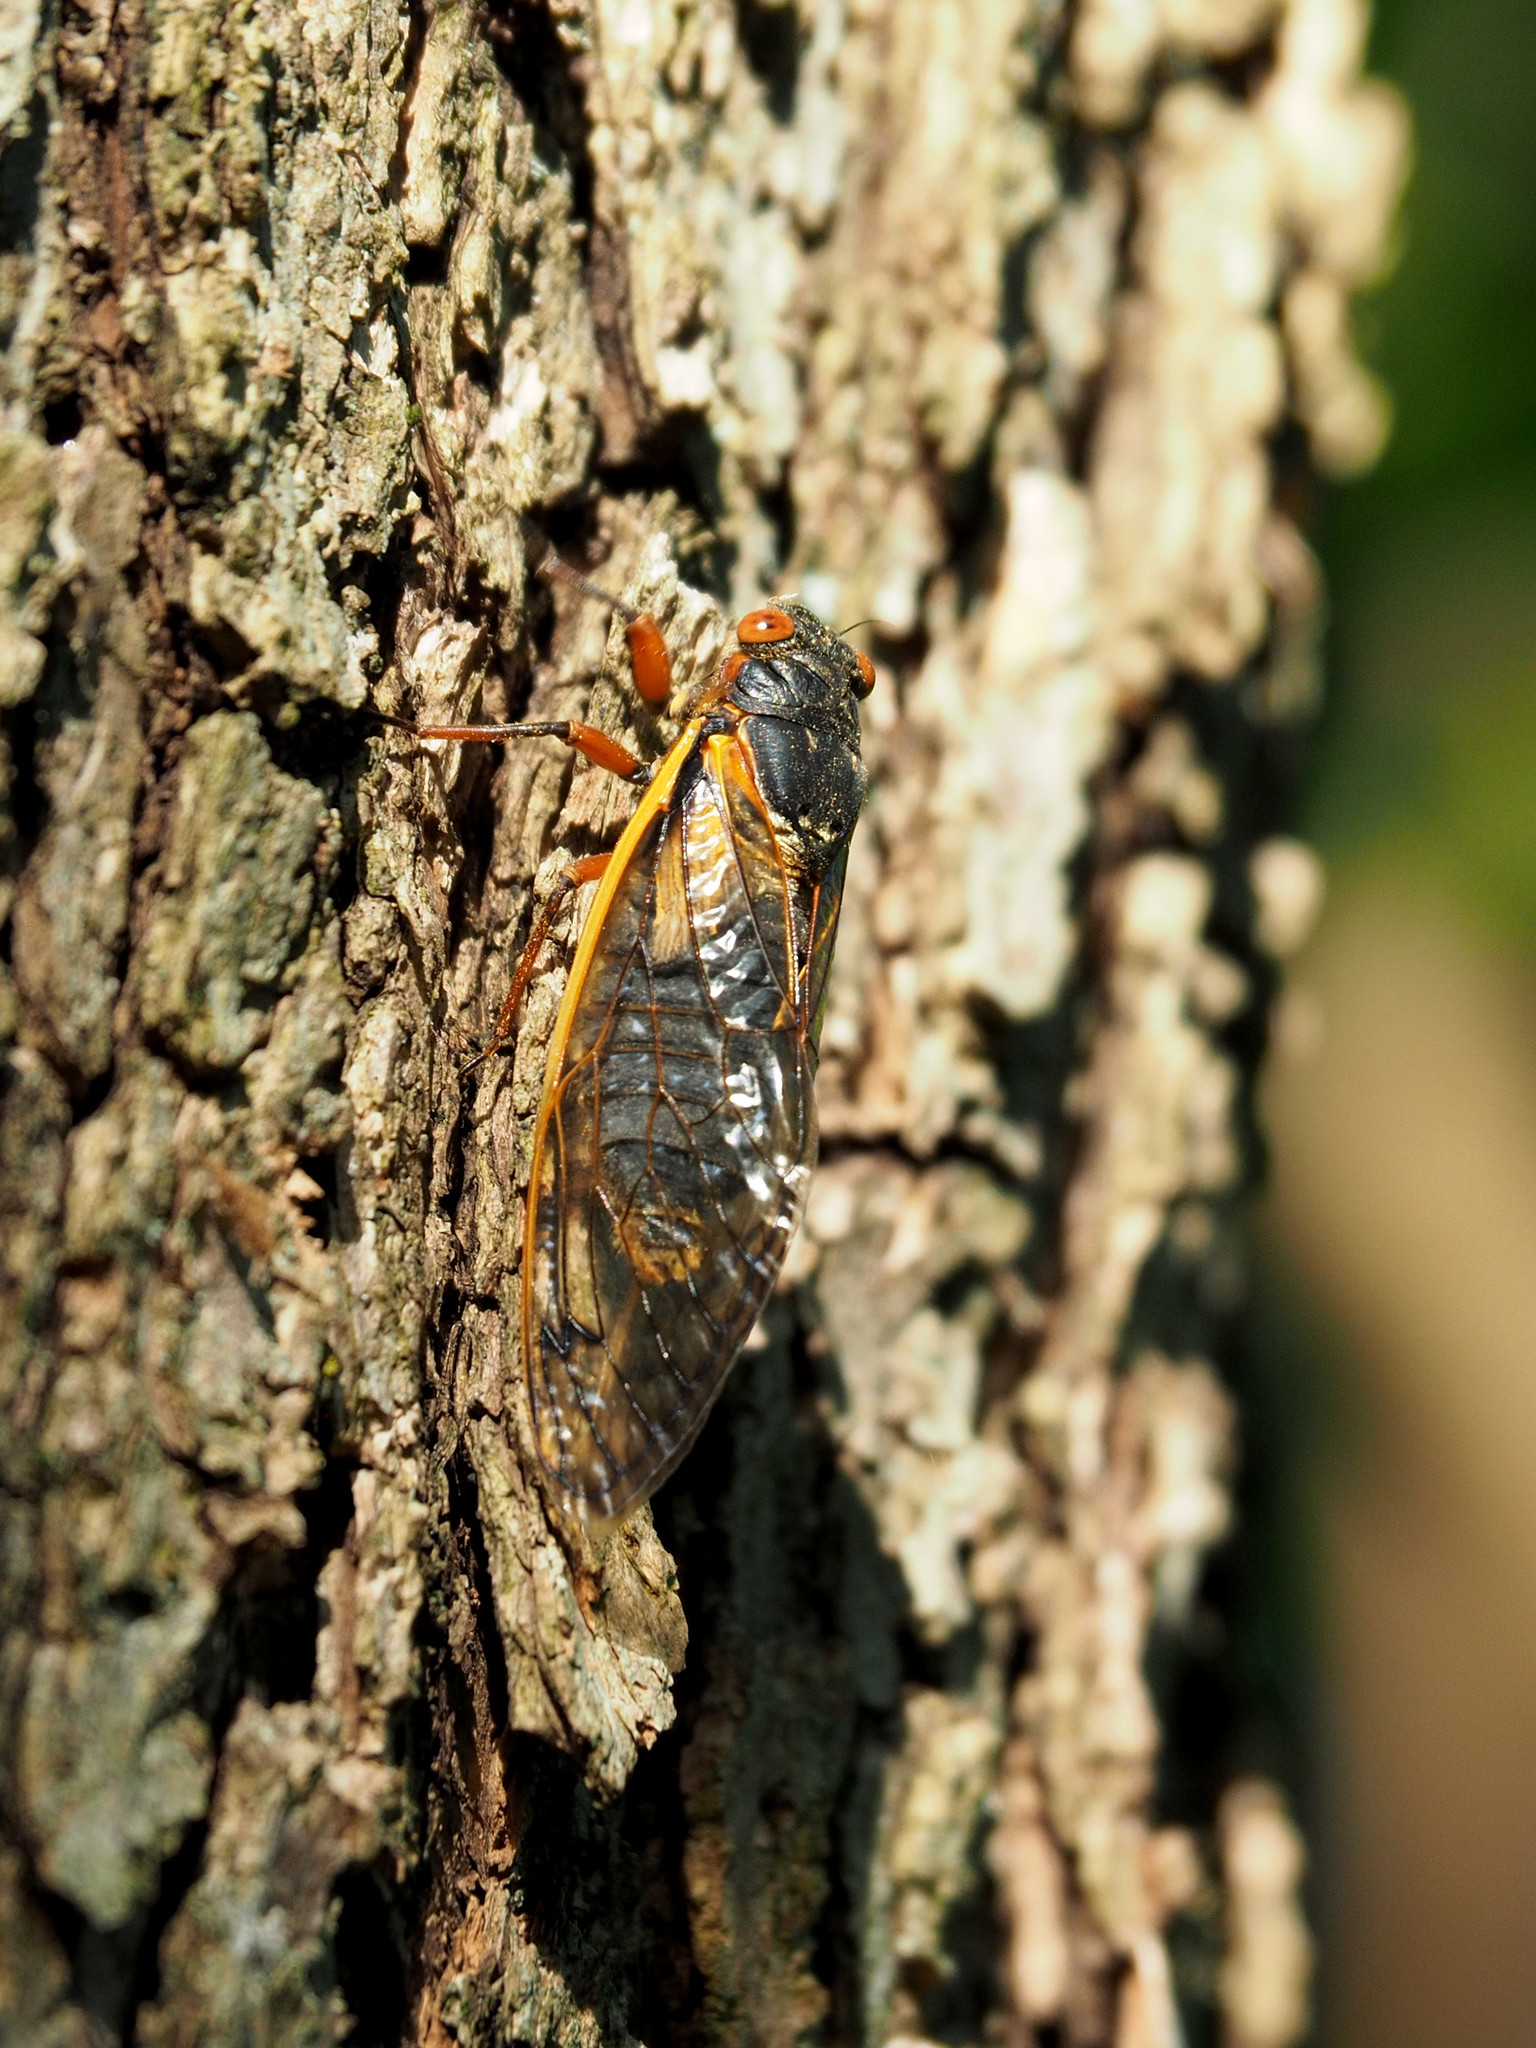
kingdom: Animalia
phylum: Arthropoda
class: Insecta
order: Hemiptera
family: Cicadidae
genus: Magicicada
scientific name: Magicicada septendecim
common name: Periodical cicada
